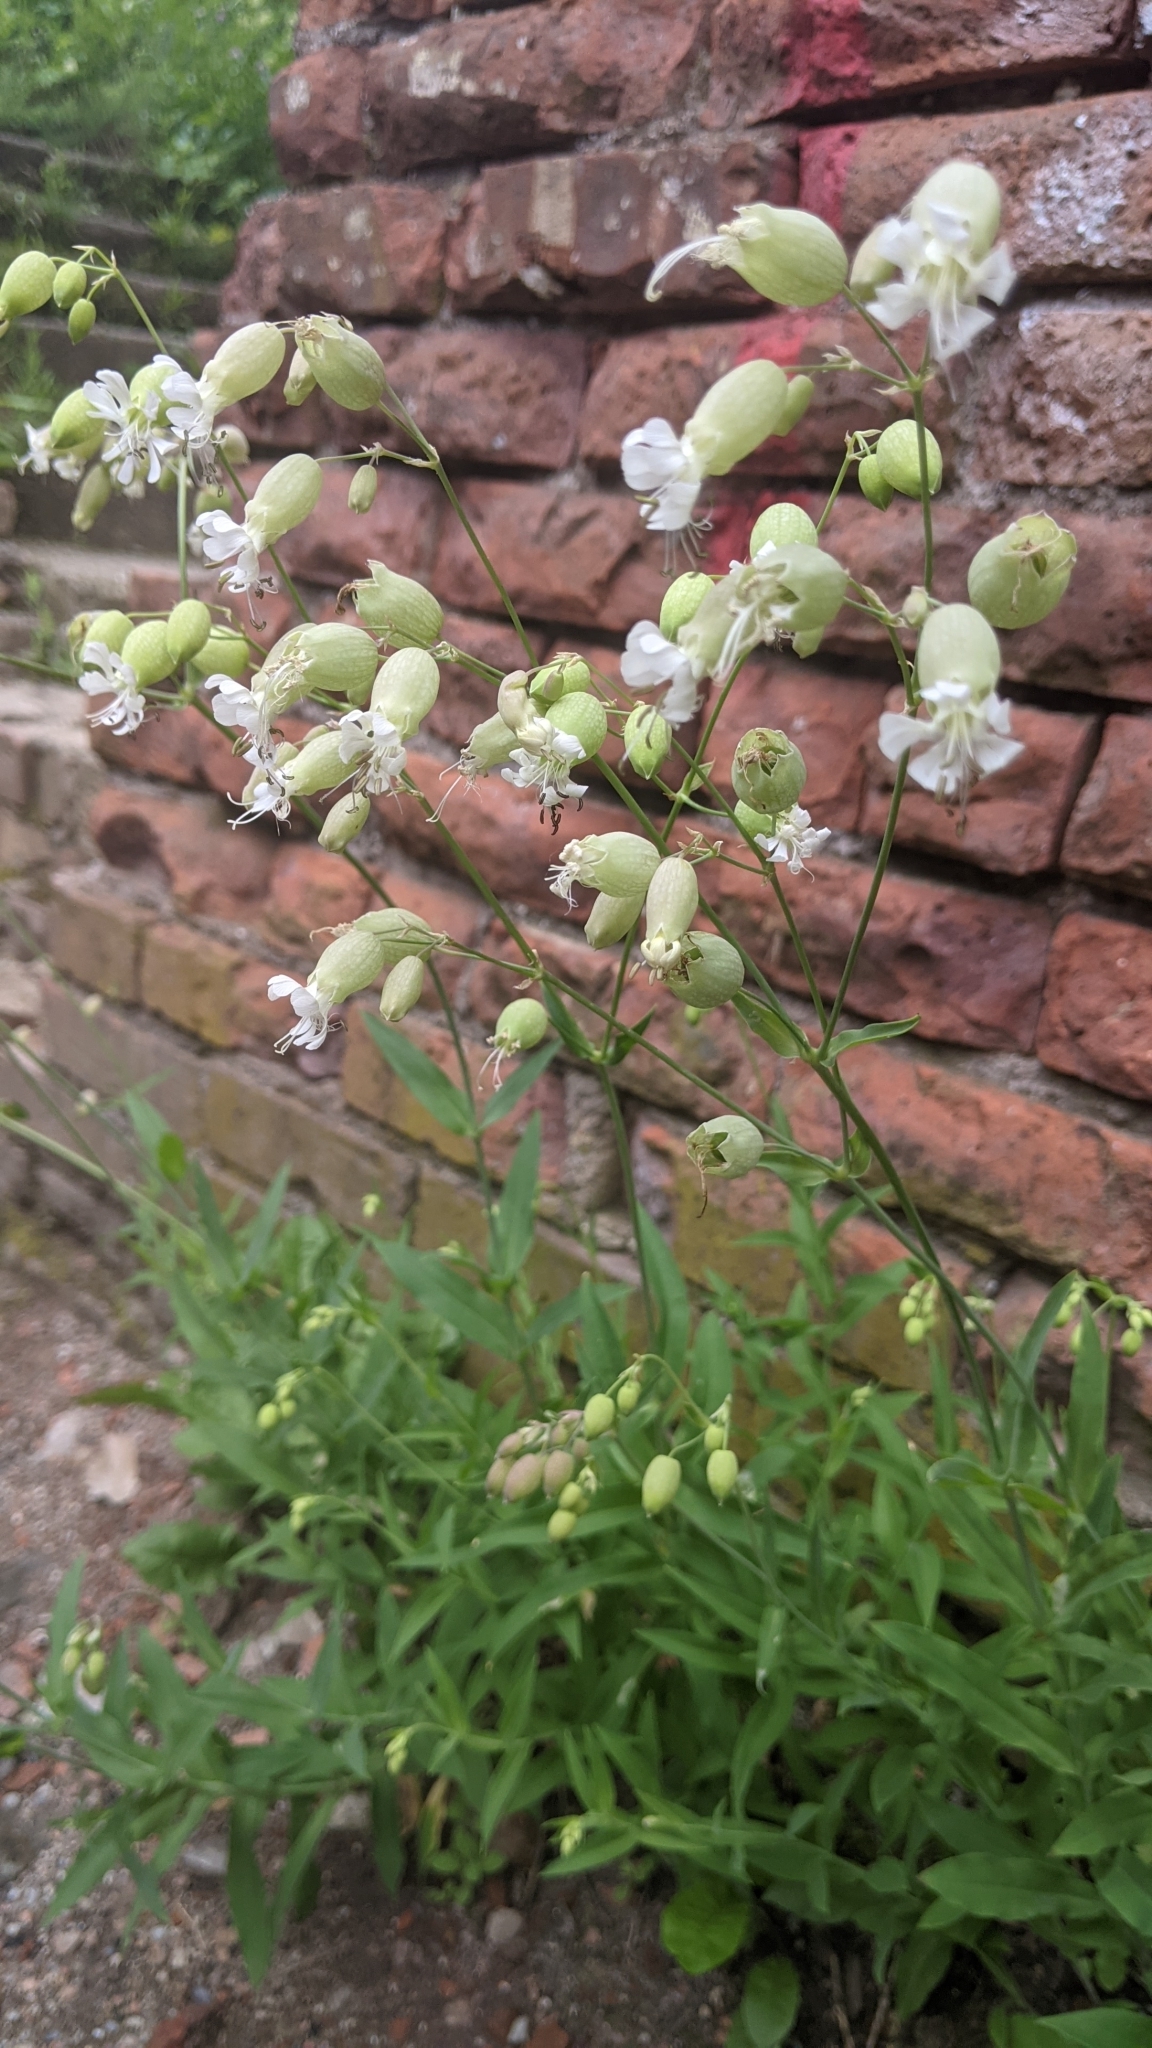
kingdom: Plantae
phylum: Tracheophyta
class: Magnoliopsida
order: Caryophyllales
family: Caryophyllaceae
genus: Silene
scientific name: Silene vulgaris
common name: Bladder campion
